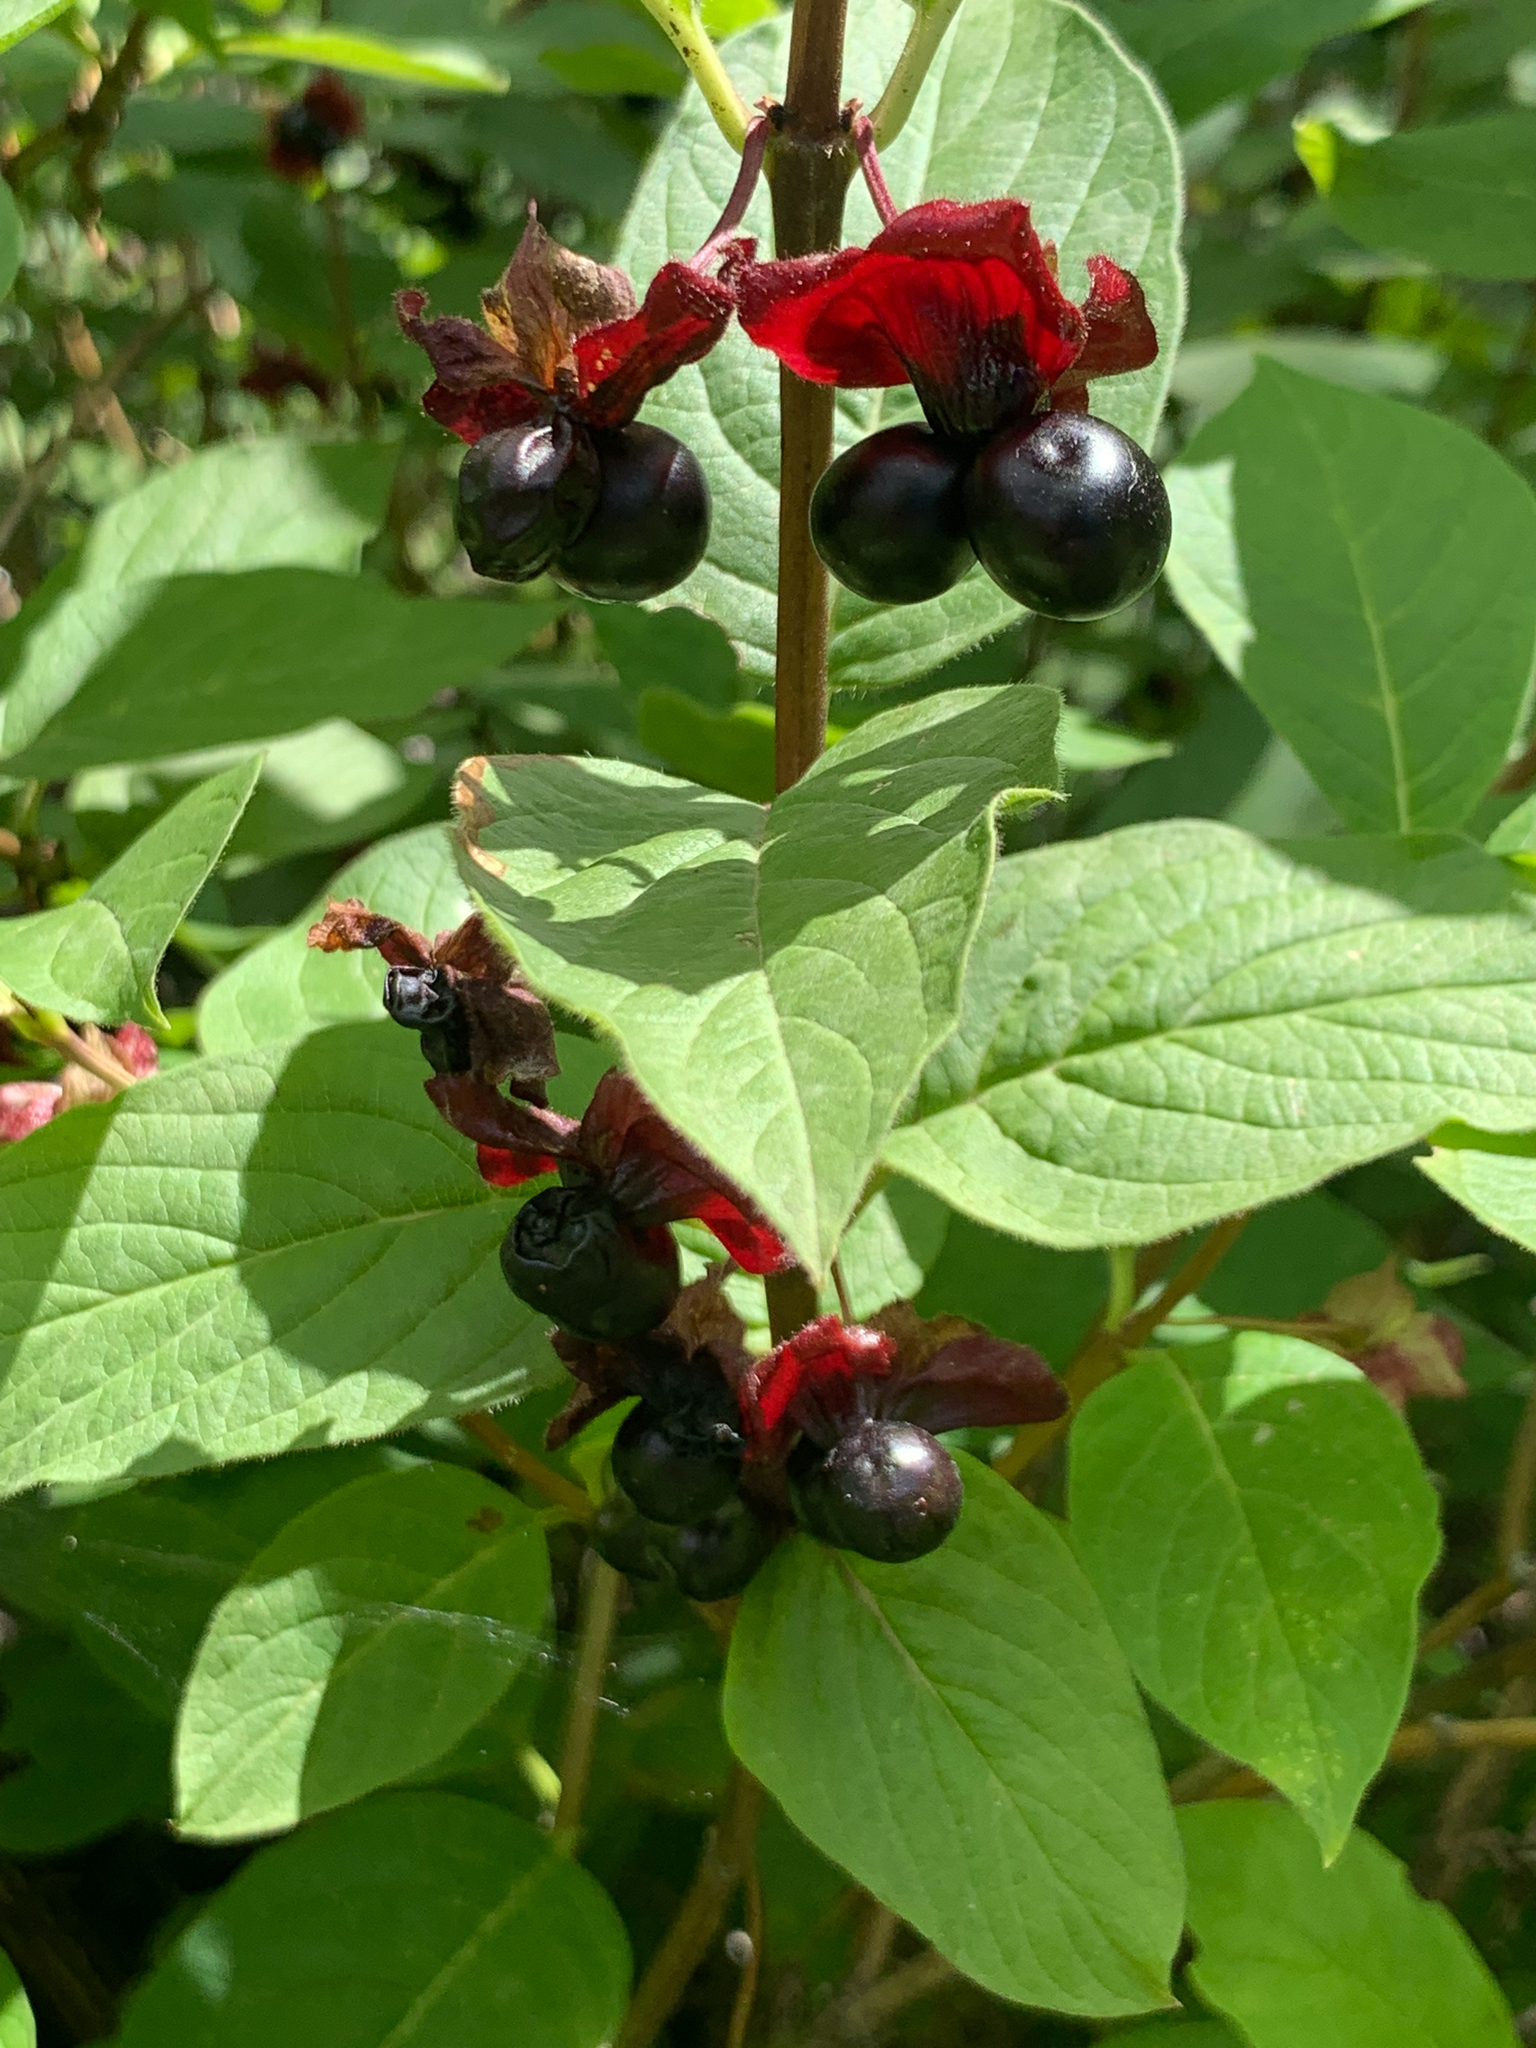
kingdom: Plantae
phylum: Tracheophyta
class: Magnoliopsida
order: Dipsacales
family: Caprifoliaceae
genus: Lonicera
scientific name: Lonicera involucrata
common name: Californian honeysuckle
